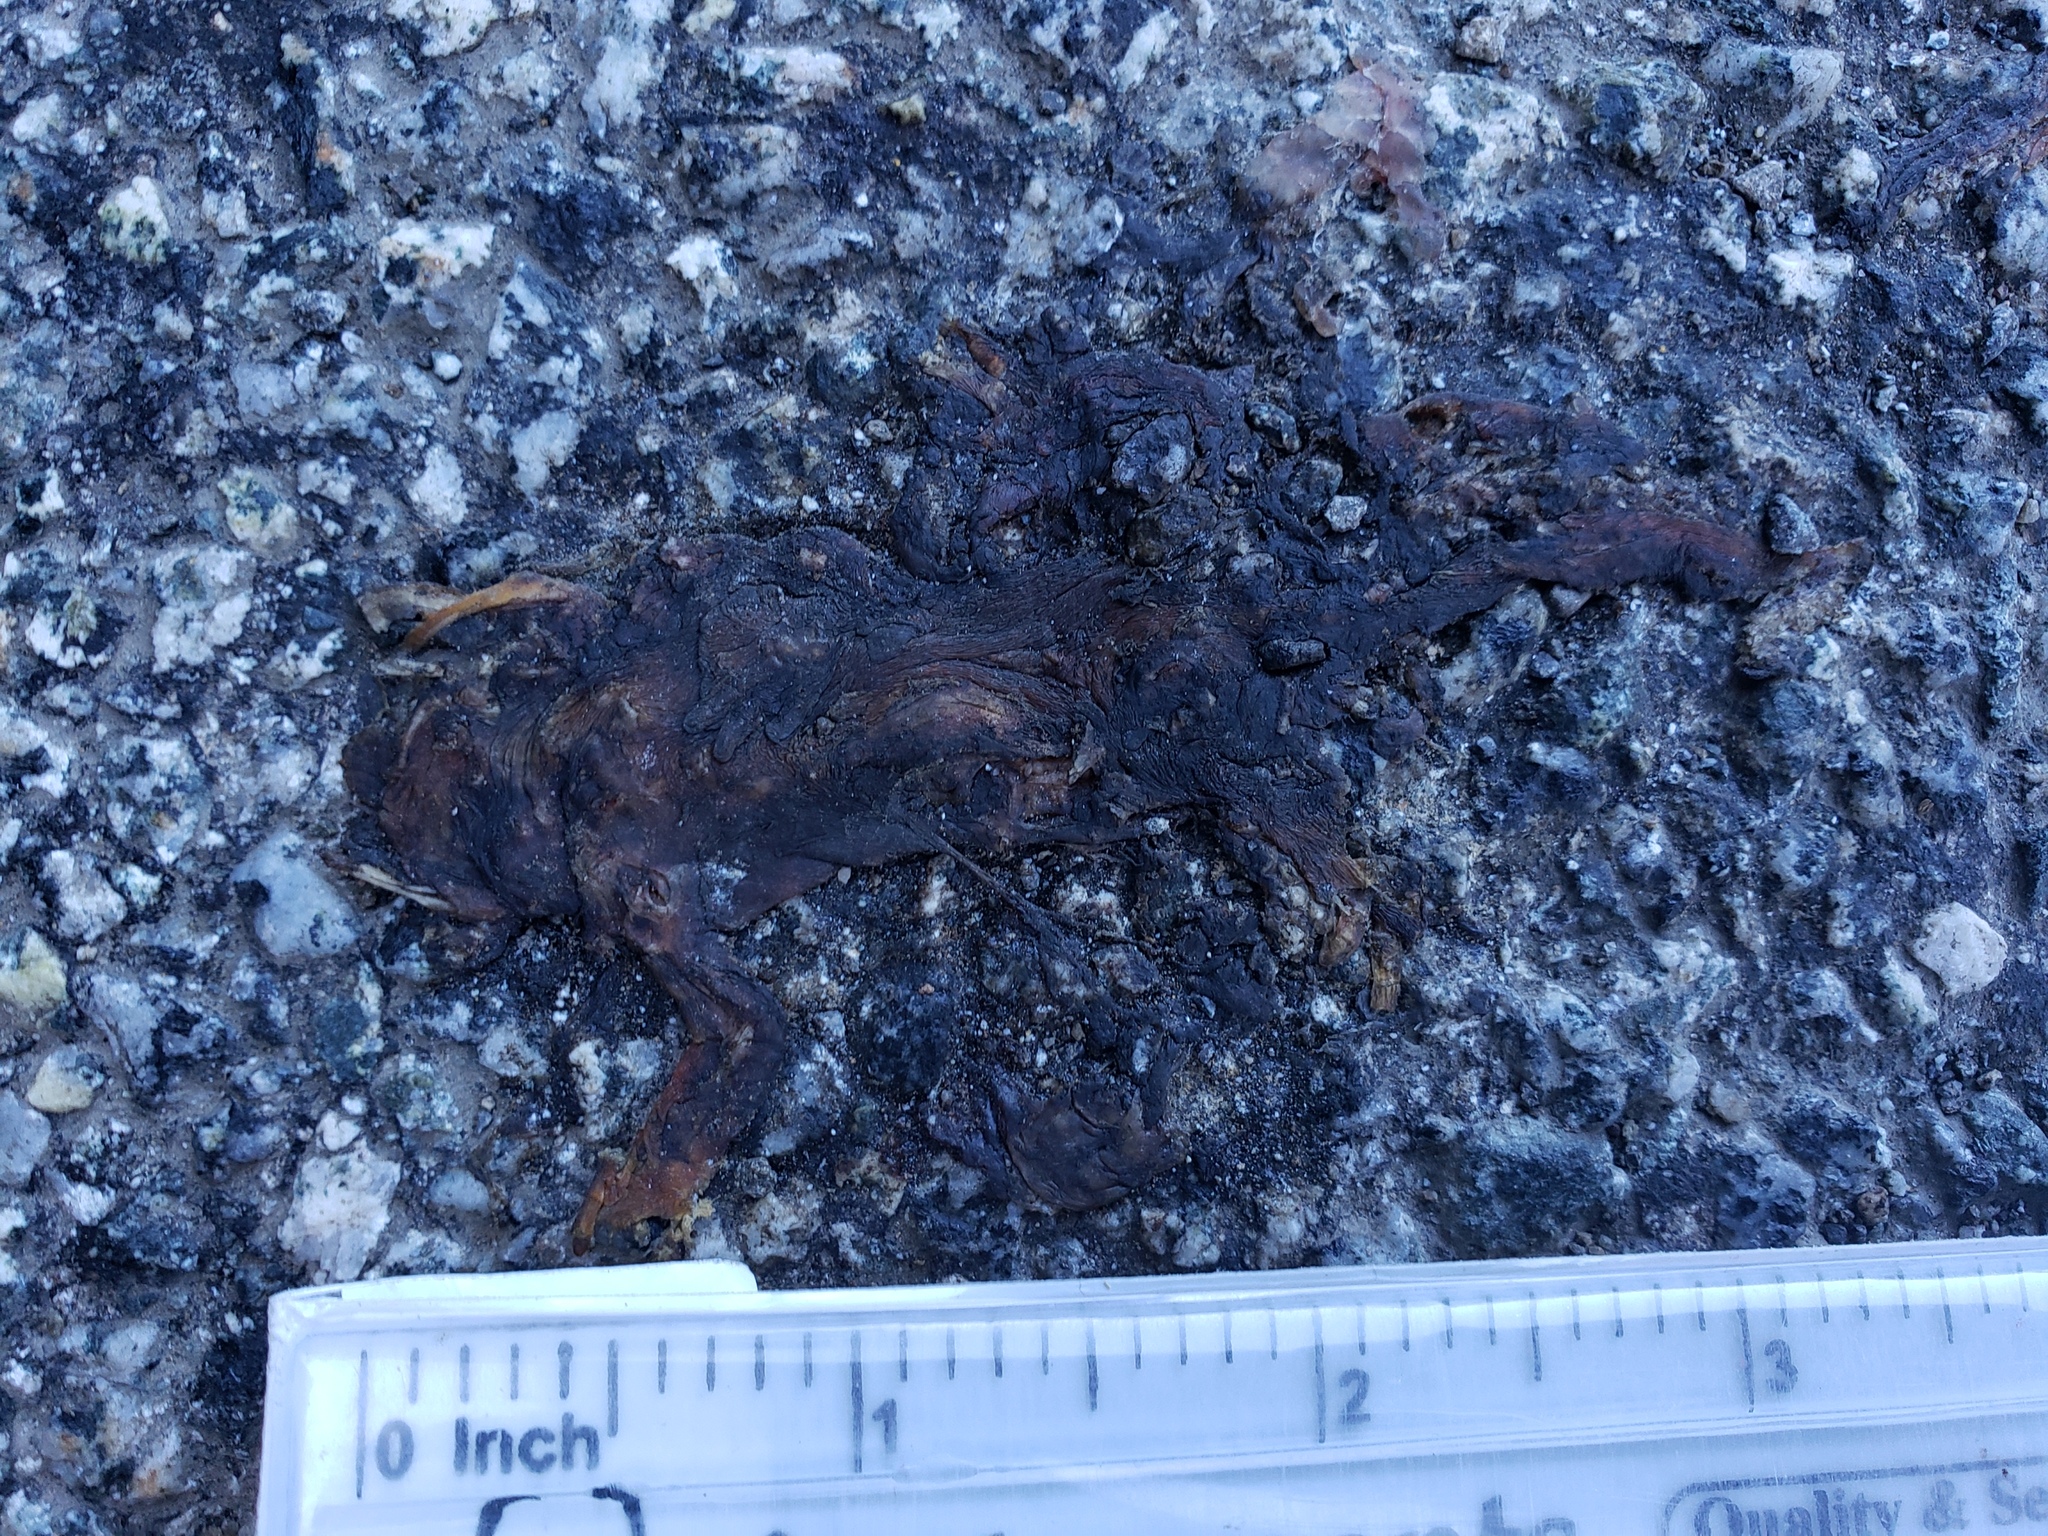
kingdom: Animalia
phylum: Chordata
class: Amphibia
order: Caudata
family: Salamandridae
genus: Taricha
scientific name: Taricha
